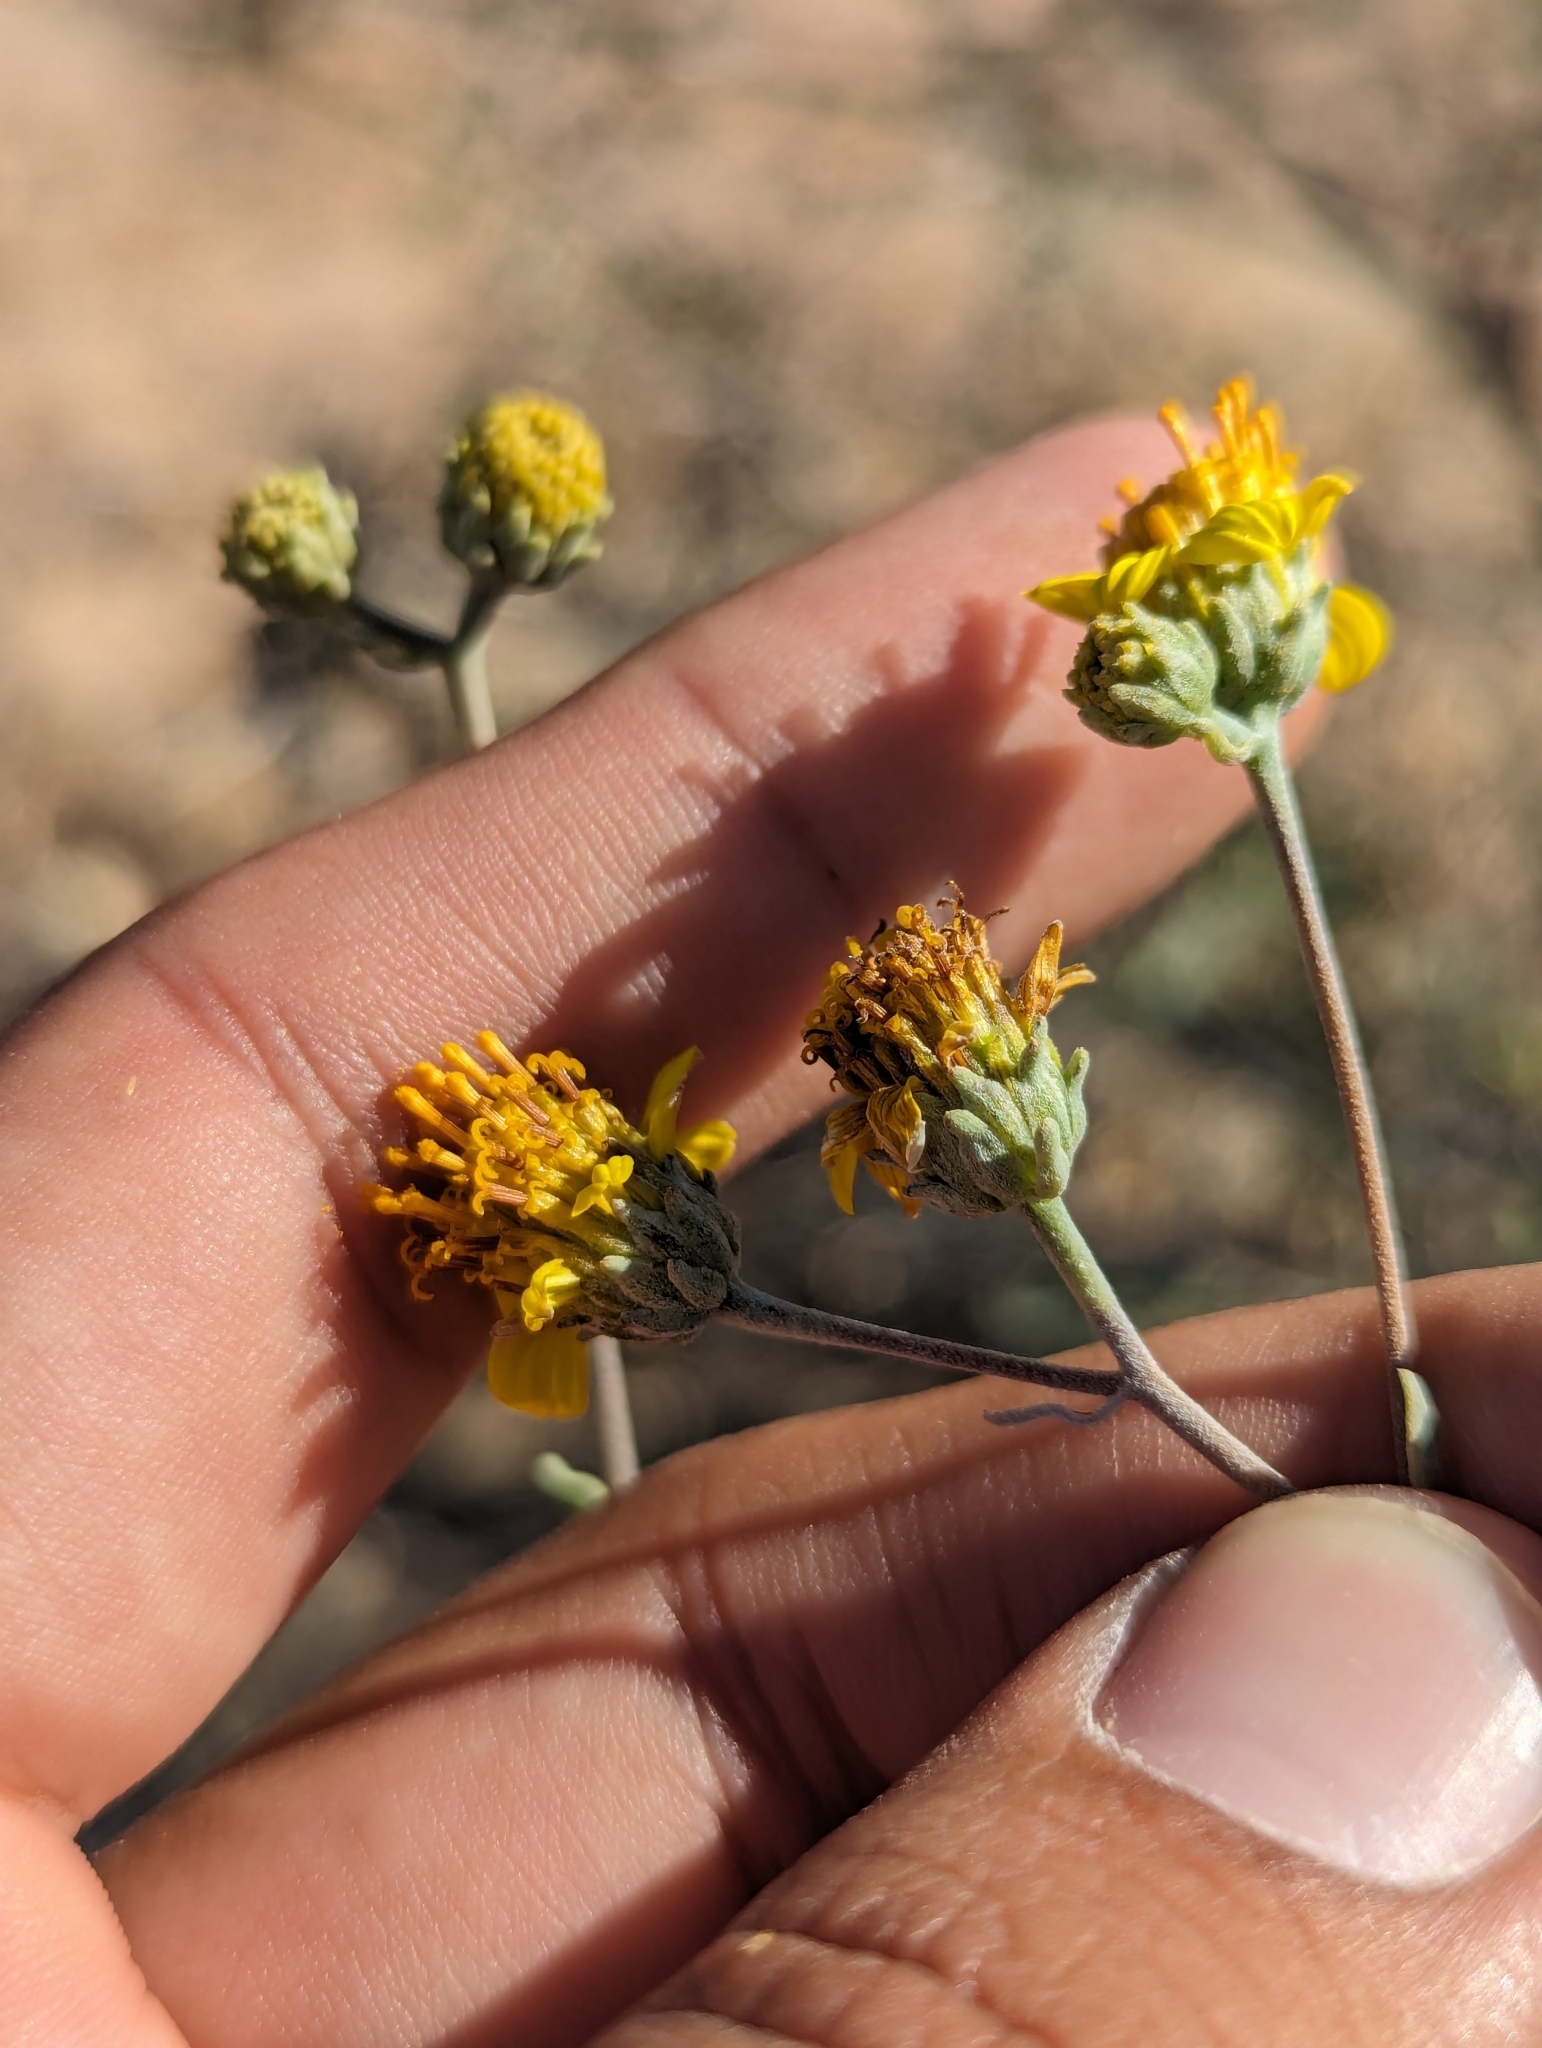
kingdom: Plantae
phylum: Tracheophyta
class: Magnoliopsida
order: Asterales
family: Asteraceae
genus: Bahiopsis
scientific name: Bahiopsis chenopodina
